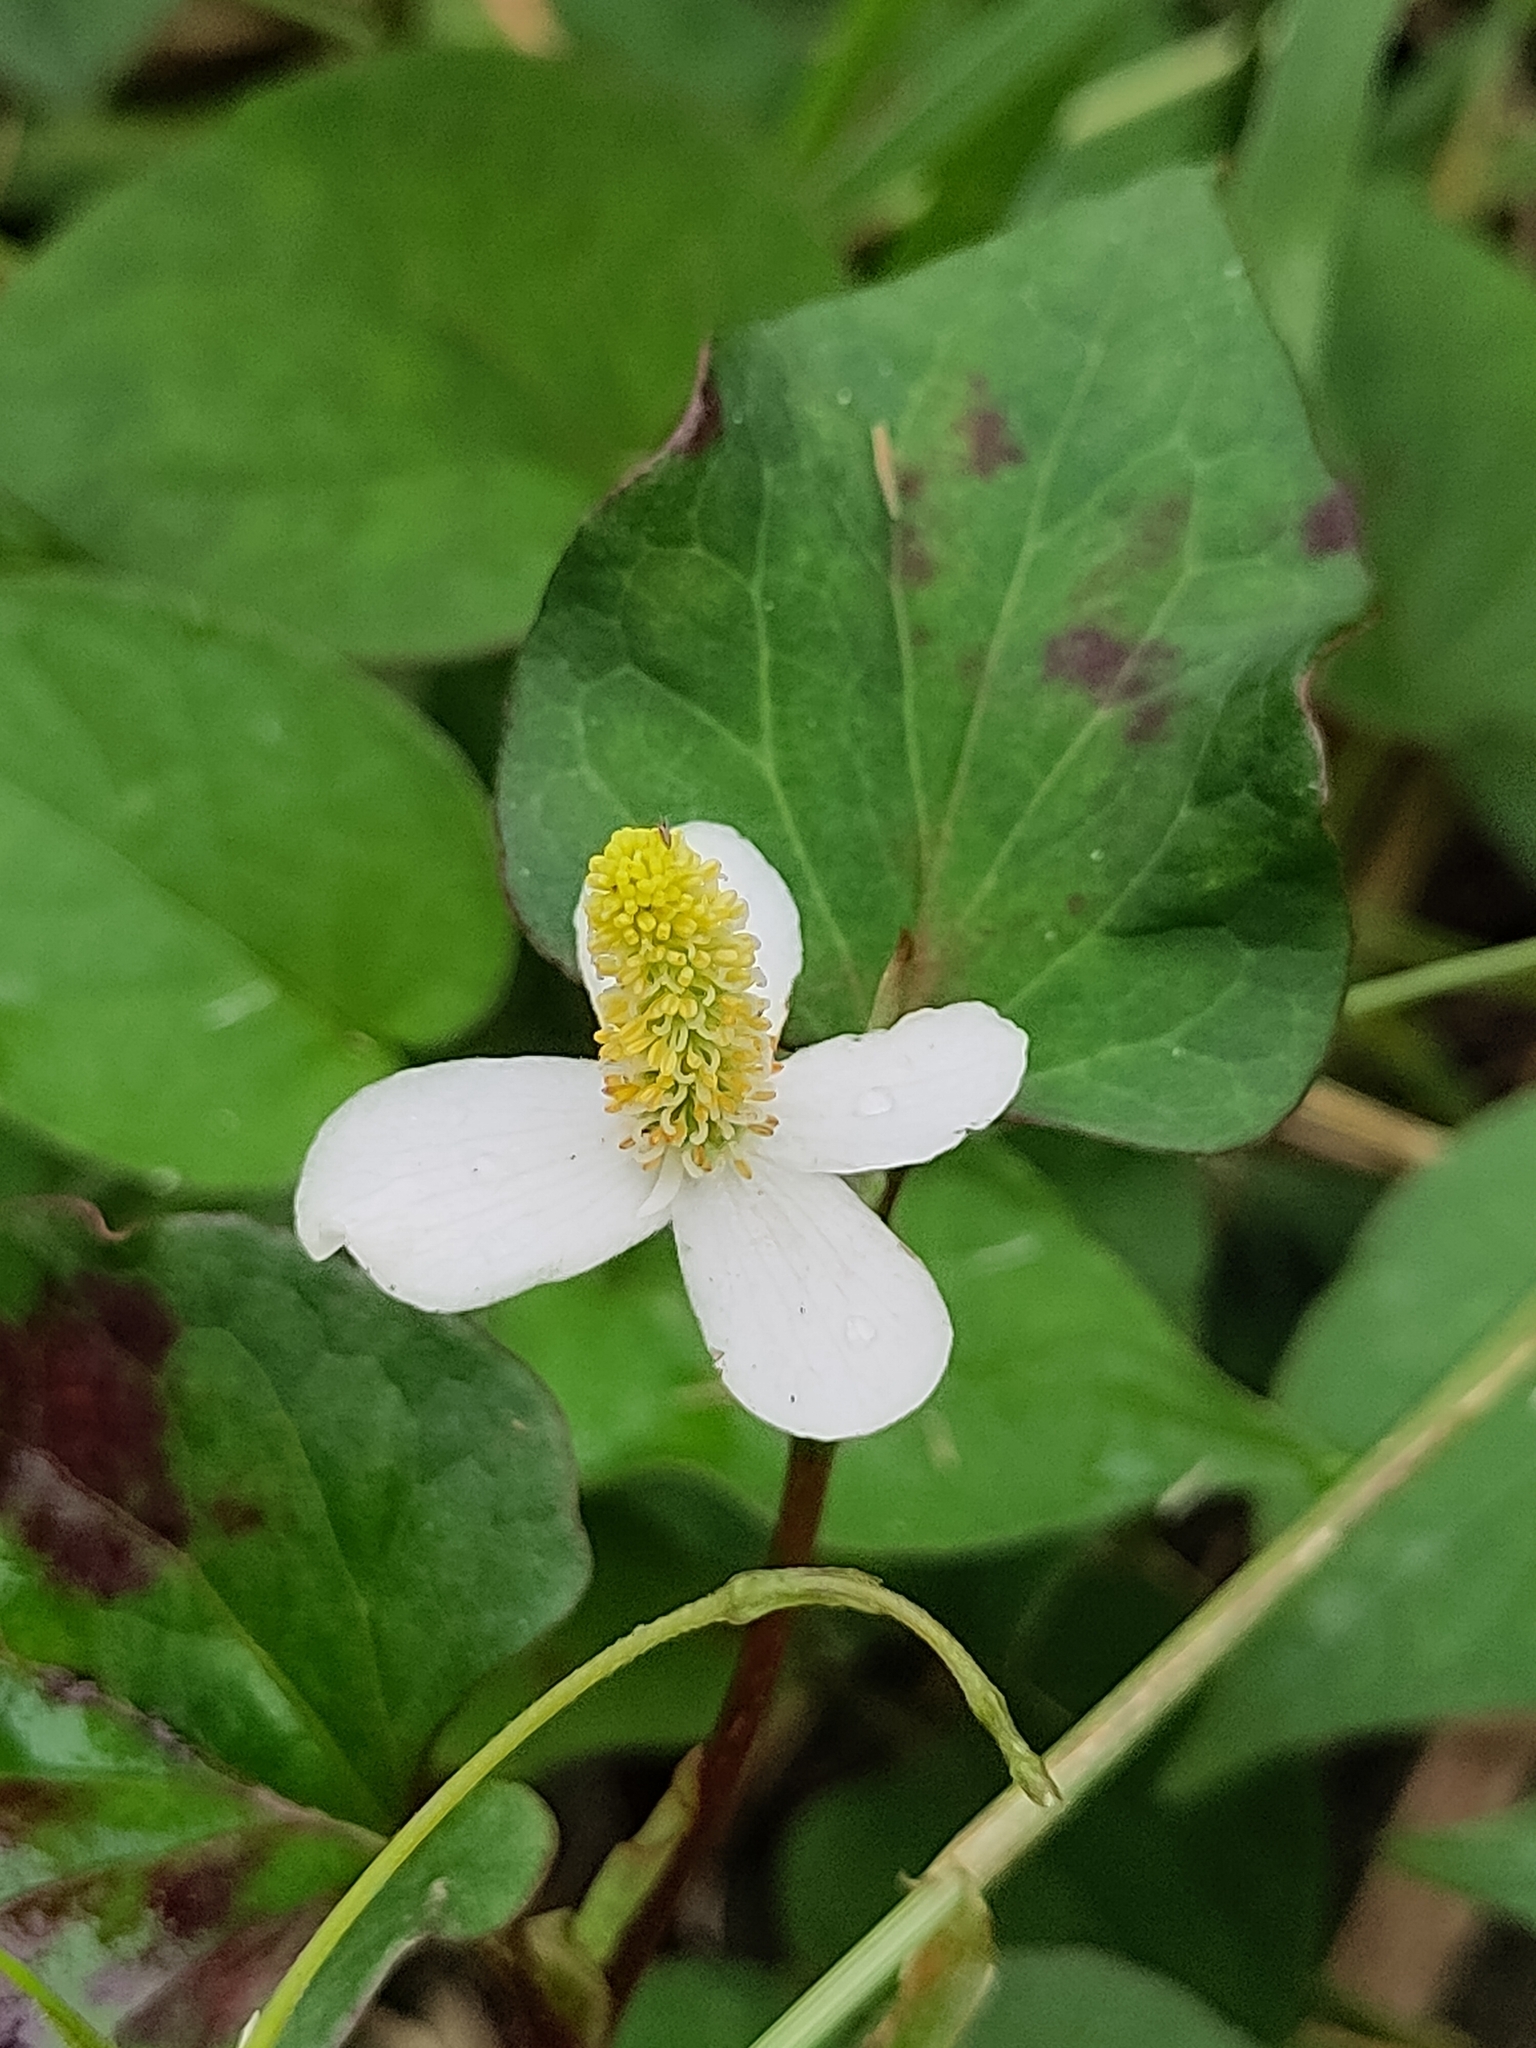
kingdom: Plantae
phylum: Tracheophyta
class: Magnoliopsida
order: Piperales
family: Saururaceae
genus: Houttuynia
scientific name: Houttuynia cordata
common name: Chameleon
